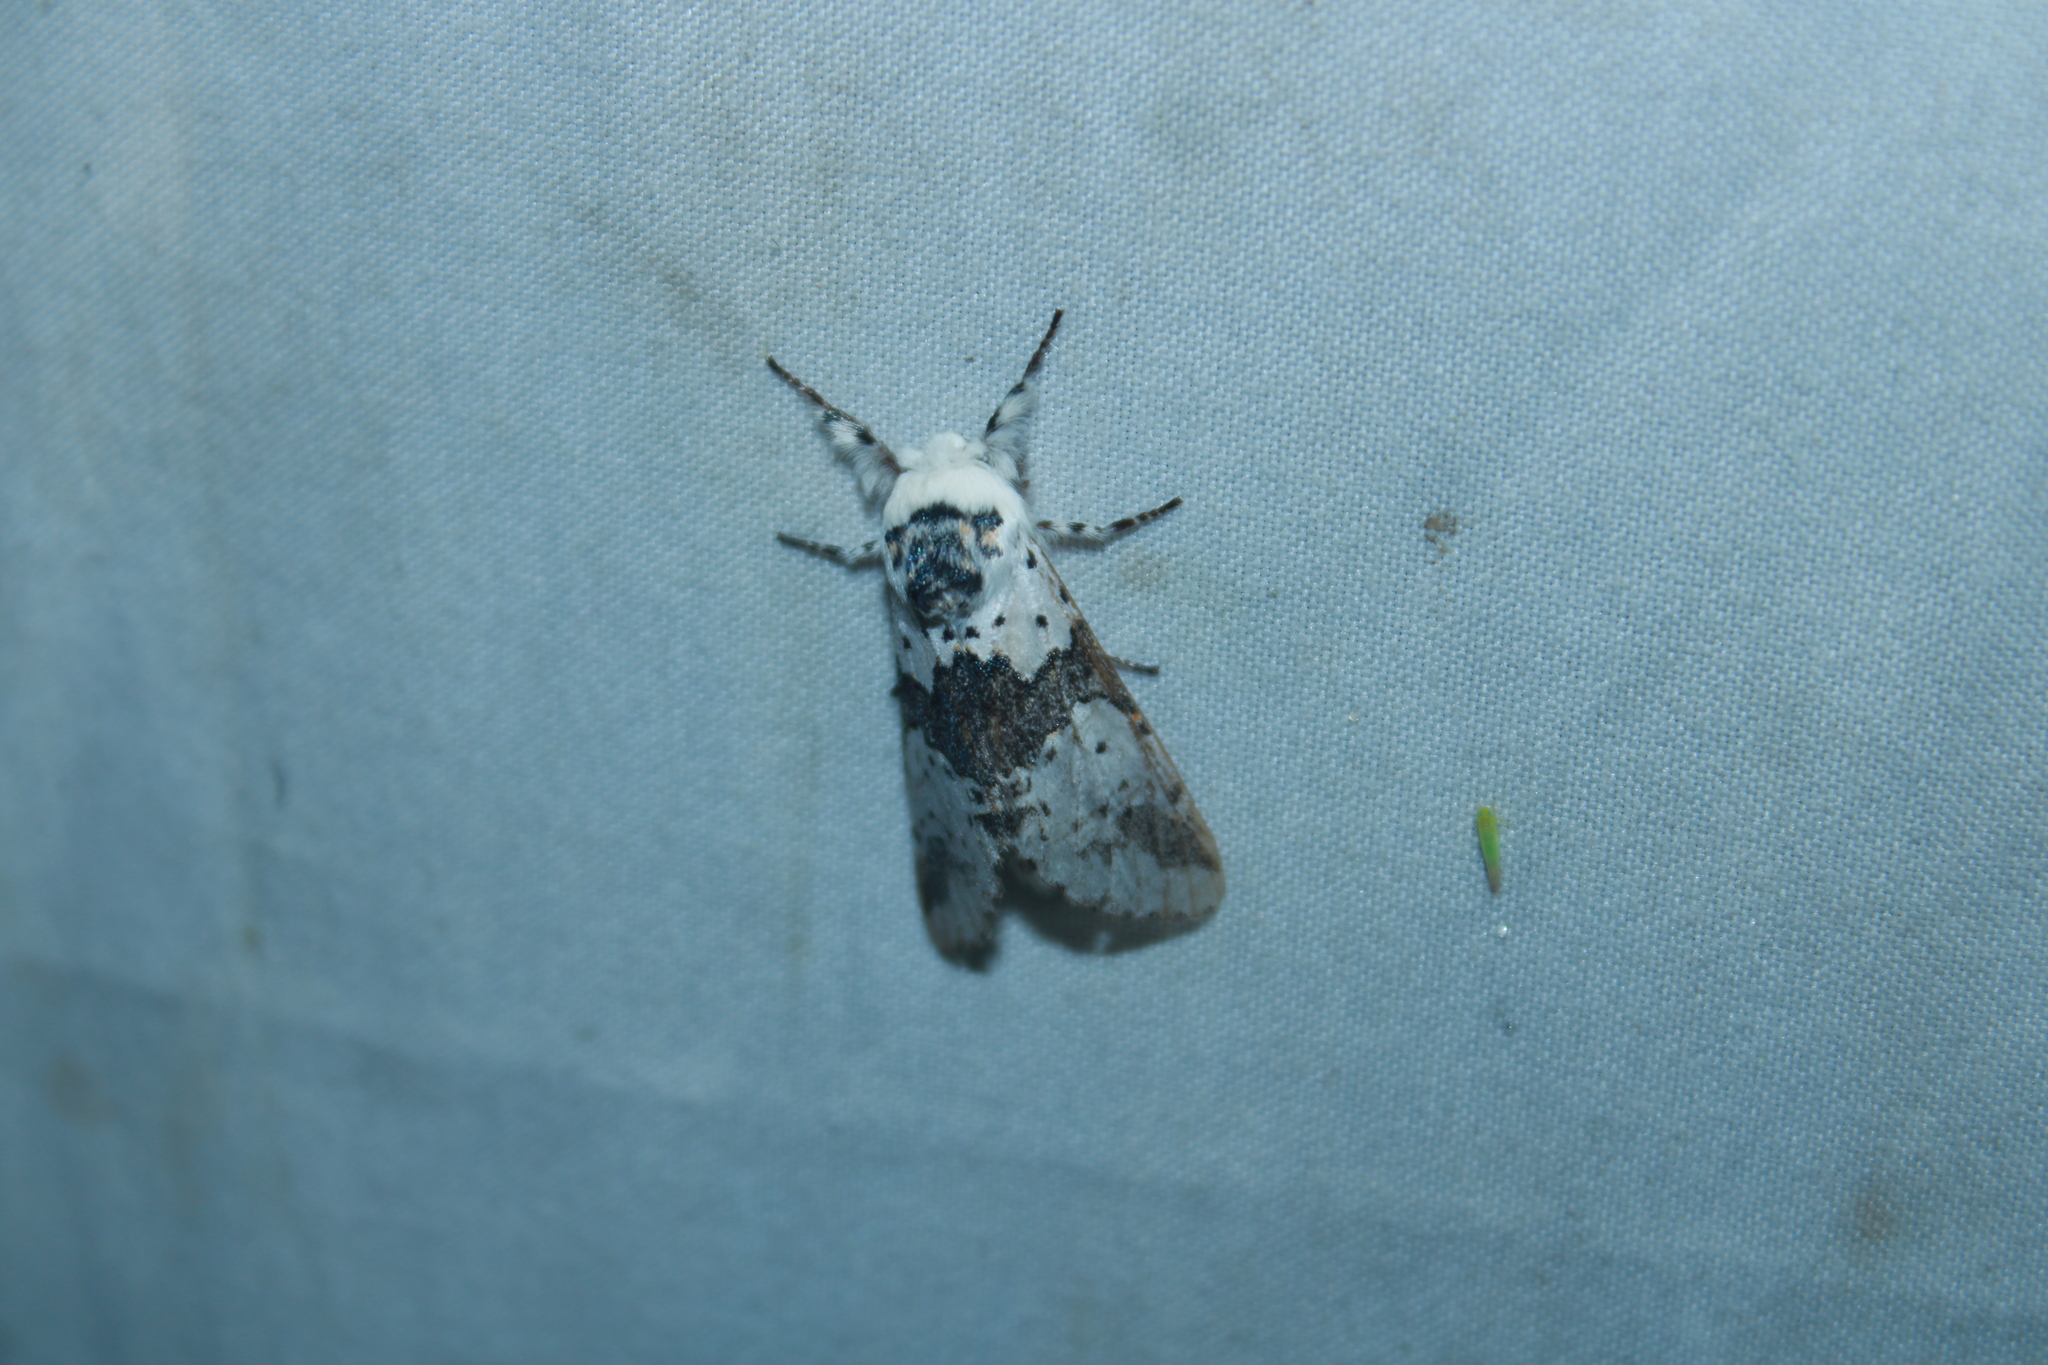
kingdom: Animalia
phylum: Arthropoda
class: Insecta
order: Lepidoptera
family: Notodontidae
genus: Furcula
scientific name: Furcula borealis
